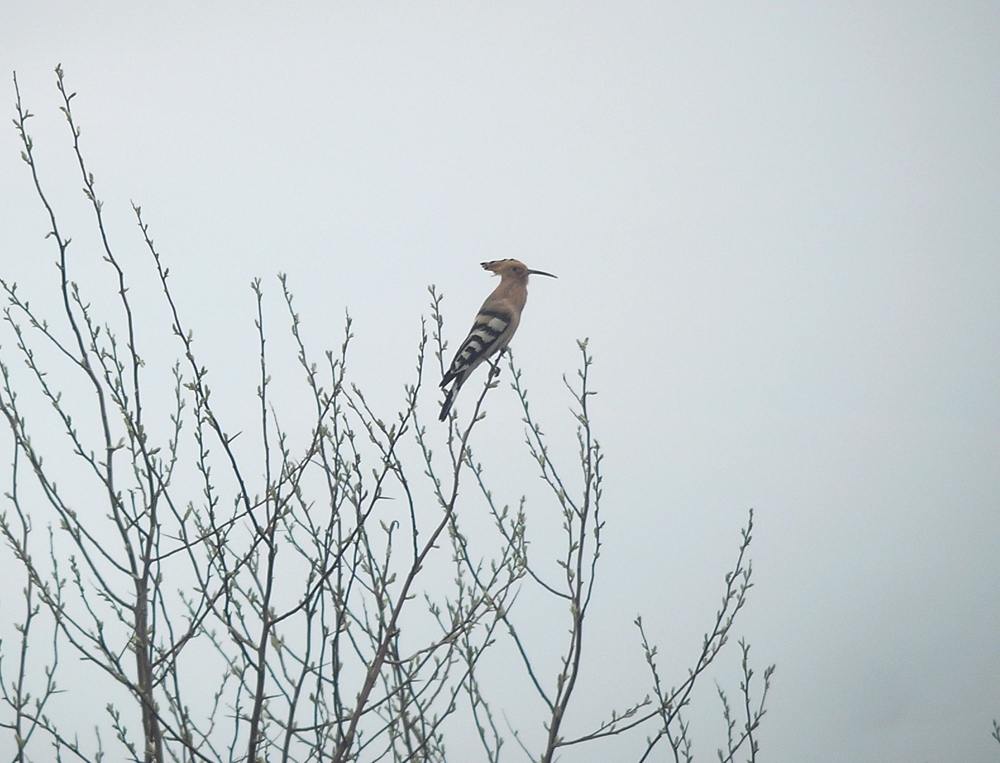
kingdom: Animalia
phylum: Chordata
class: Aves
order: Bucerotiformes
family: Upupidae
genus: Upupa
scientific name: Upupa epops
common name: Eurasian hoopoe
